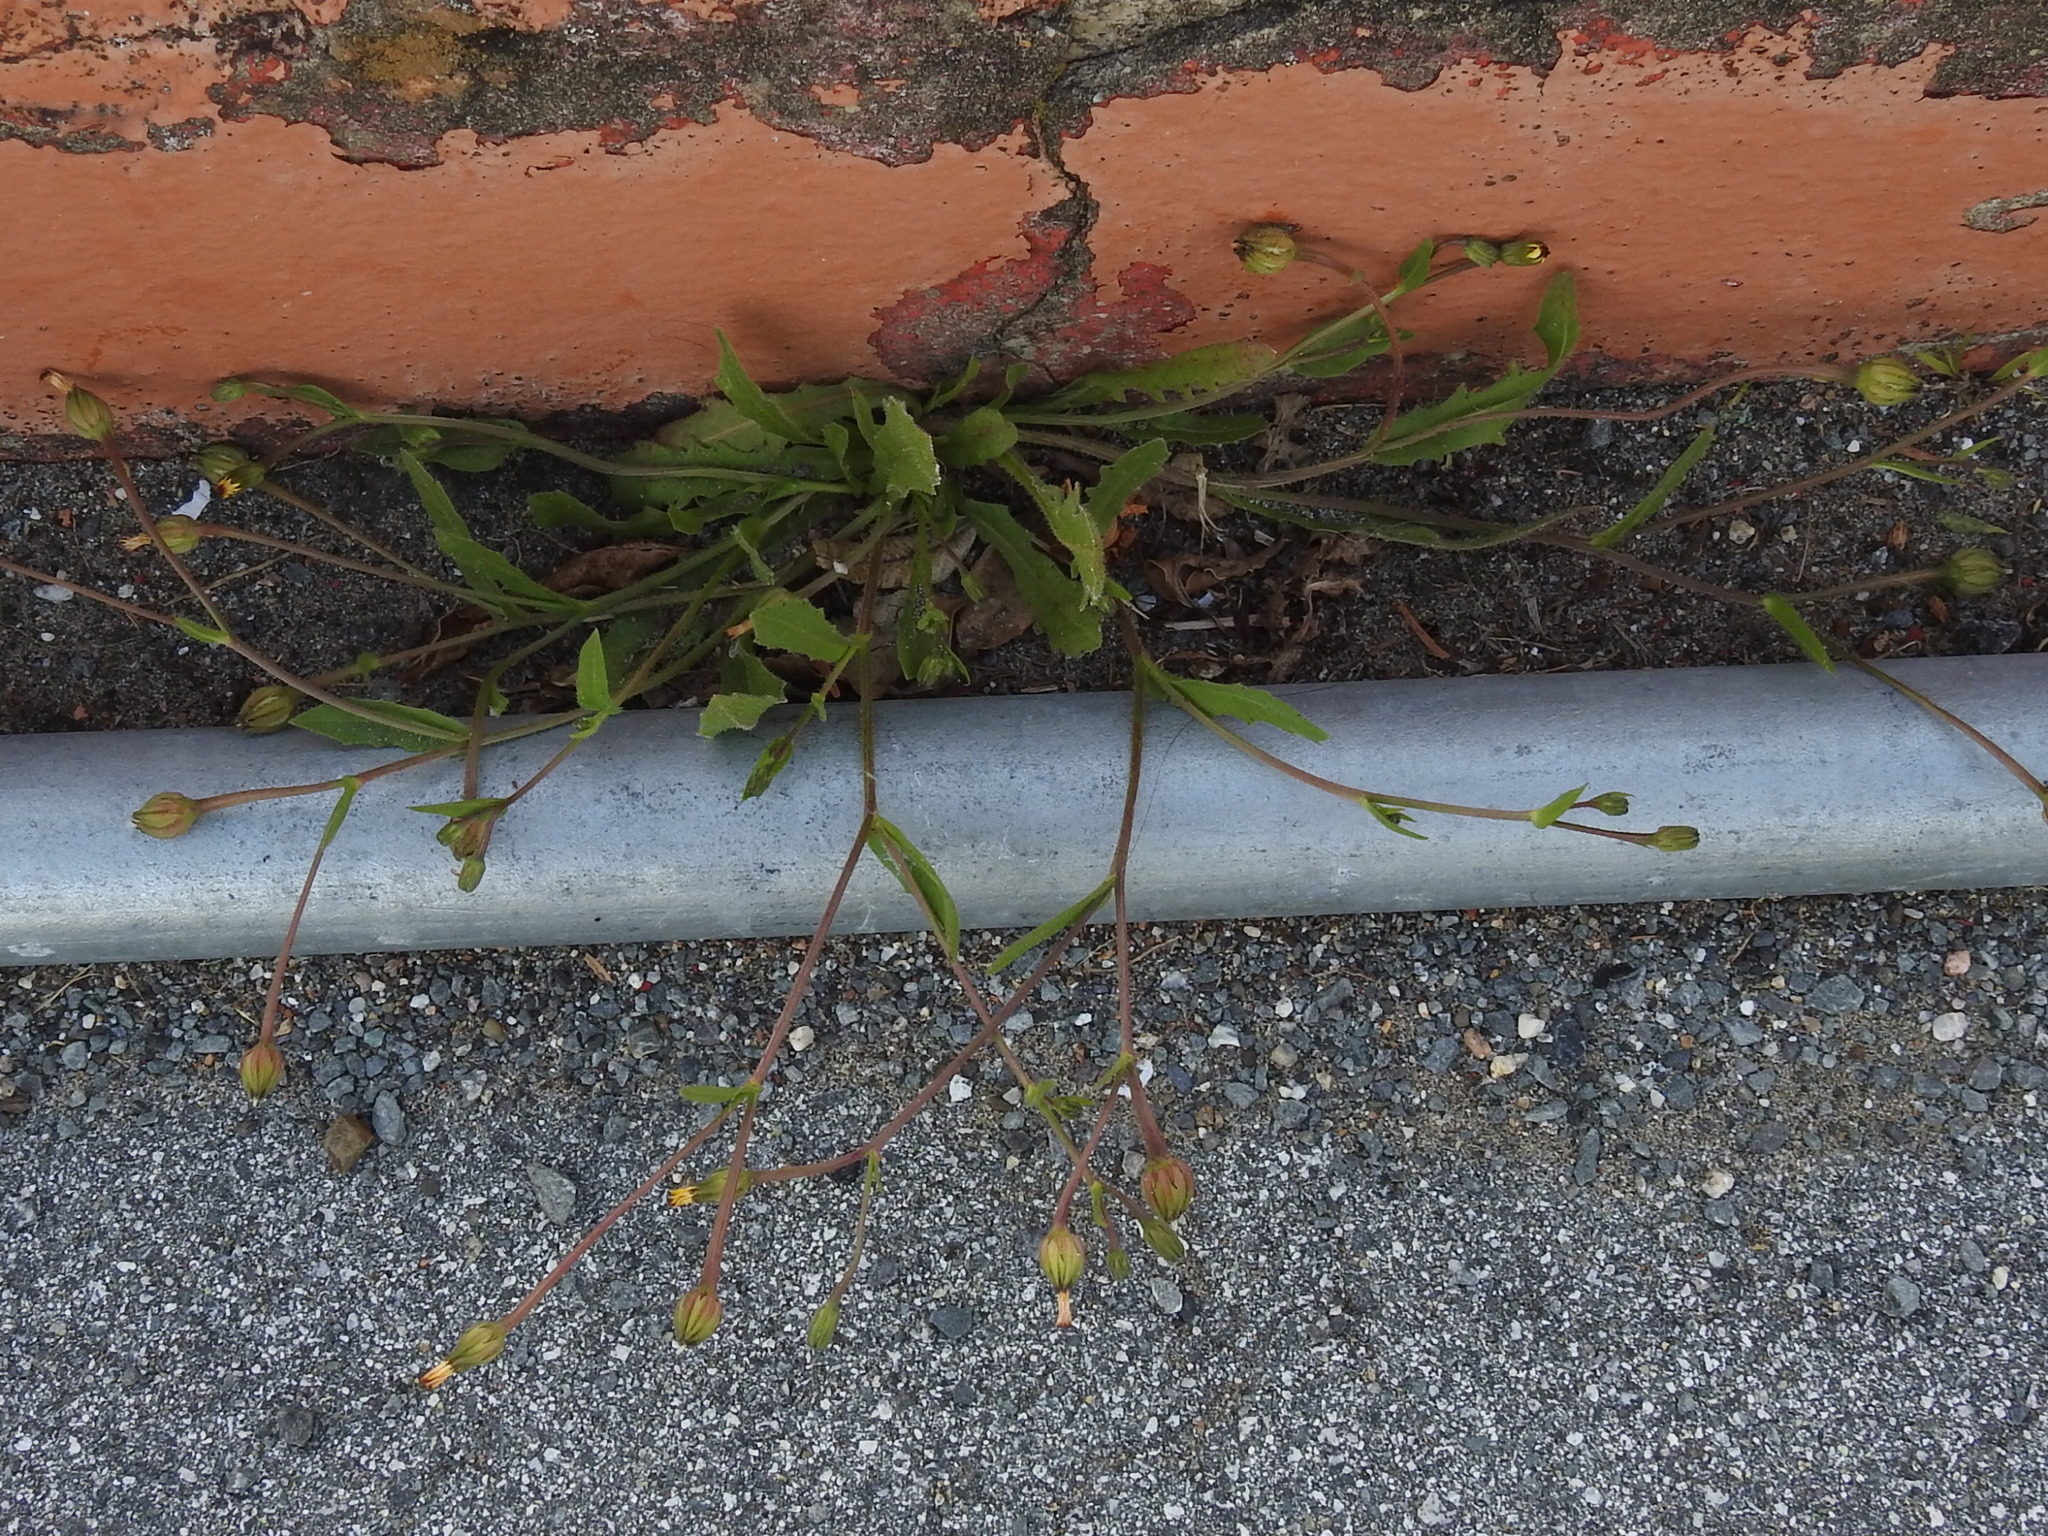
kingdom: Plantae
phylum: Tracheophyta
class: Magnoliopsida
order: Asterales
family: Asteraceae
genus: Hedypnois
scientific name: Hedypnois rhagadioloides
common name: Cretan weed
